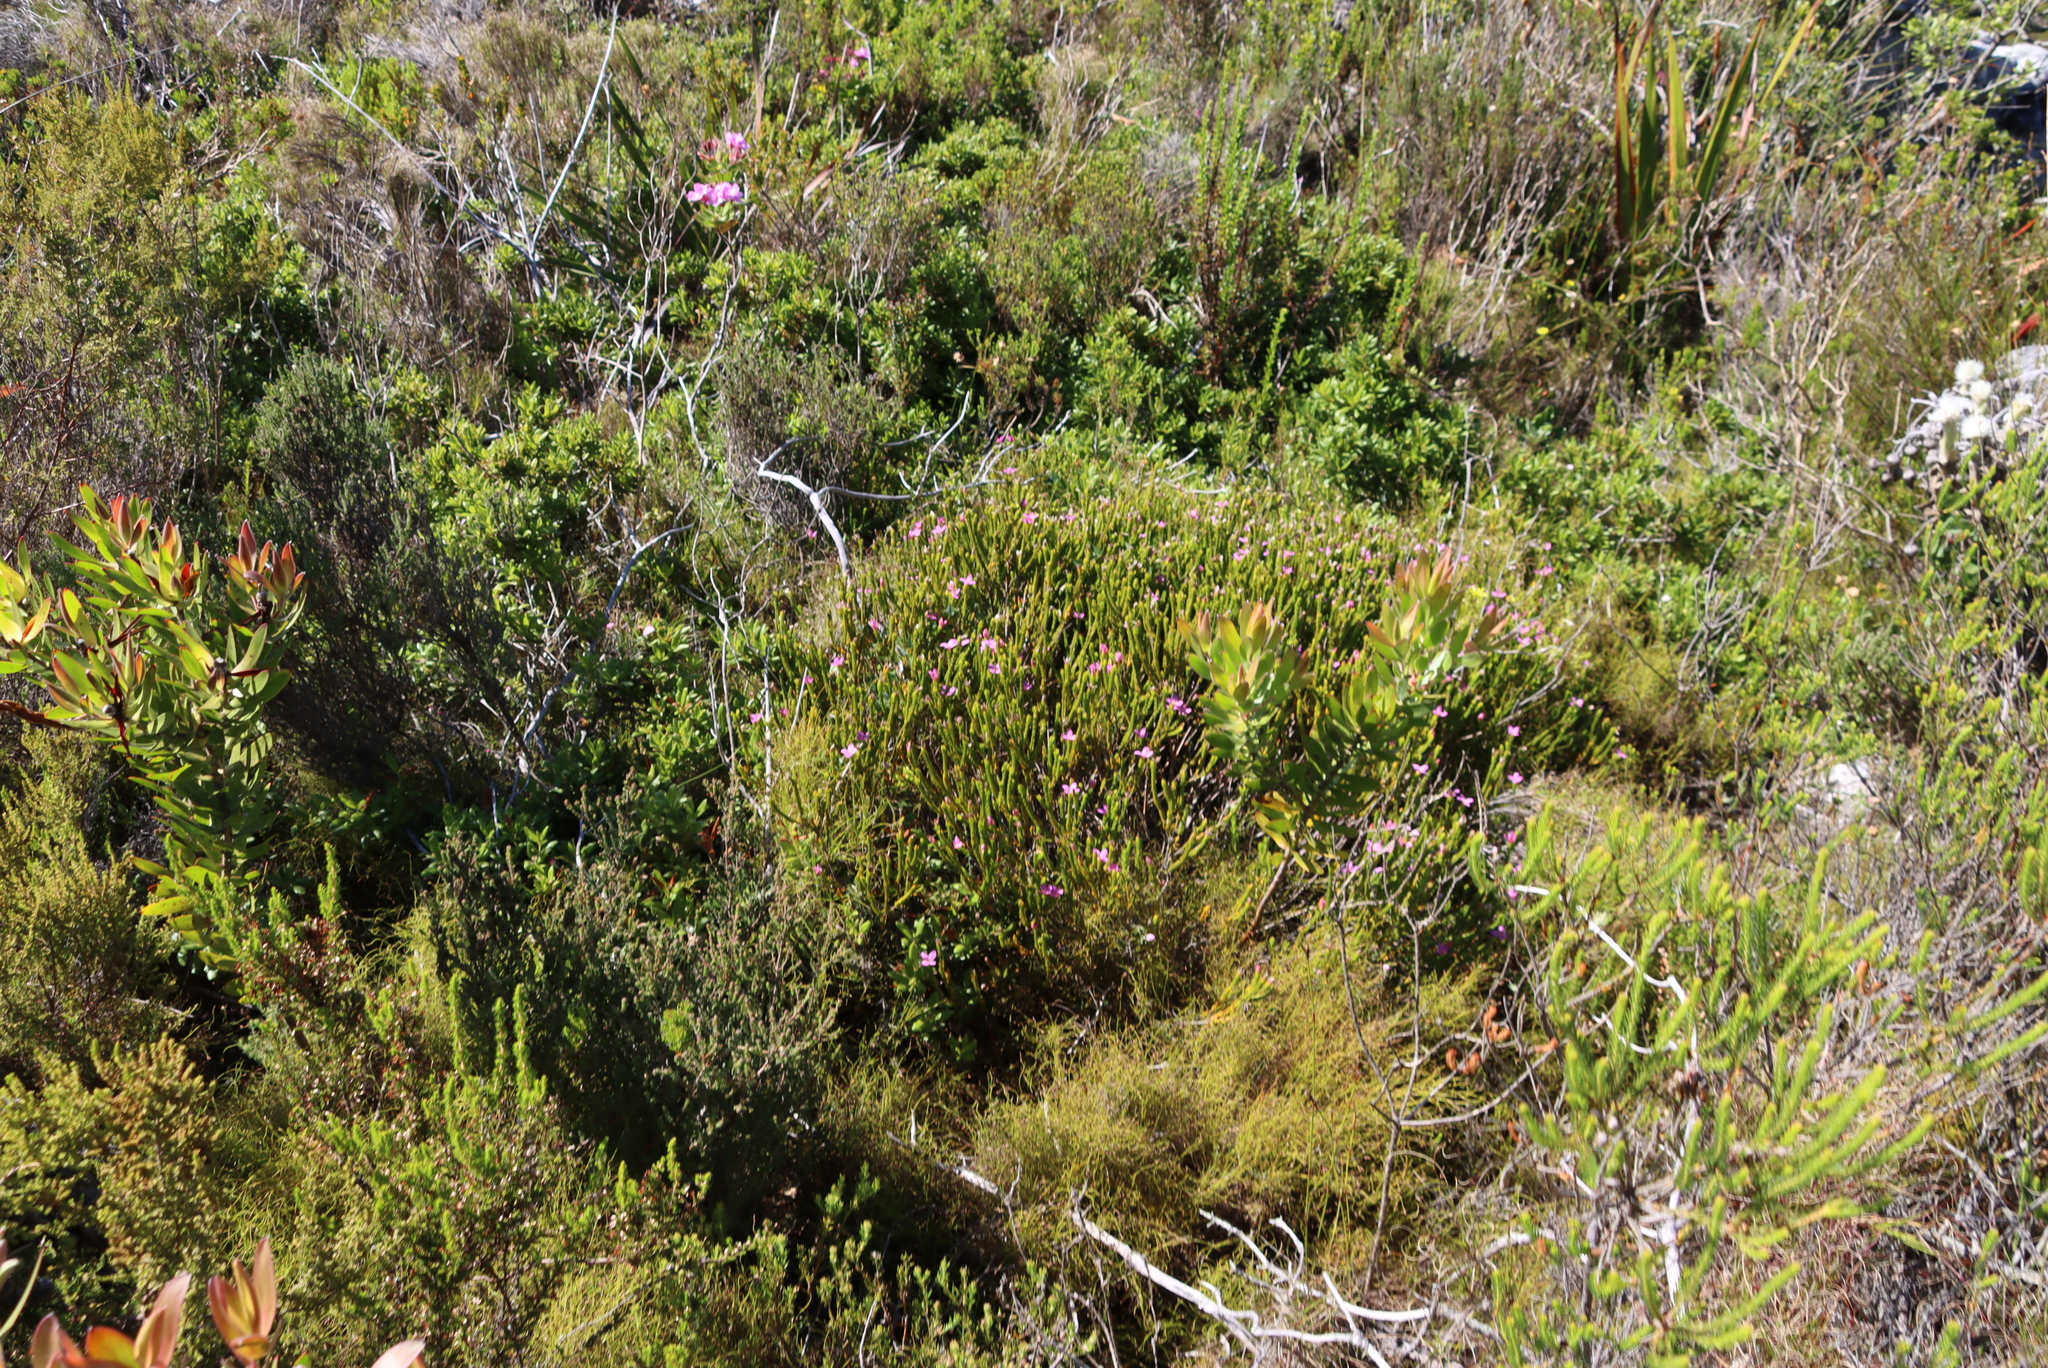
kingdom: Plantae
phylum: Tracheophyta
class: Magnoliopsida
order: Malvales
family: Thymelaeaceae
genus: Lachnaea
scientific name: Lachnaea grandiflora
